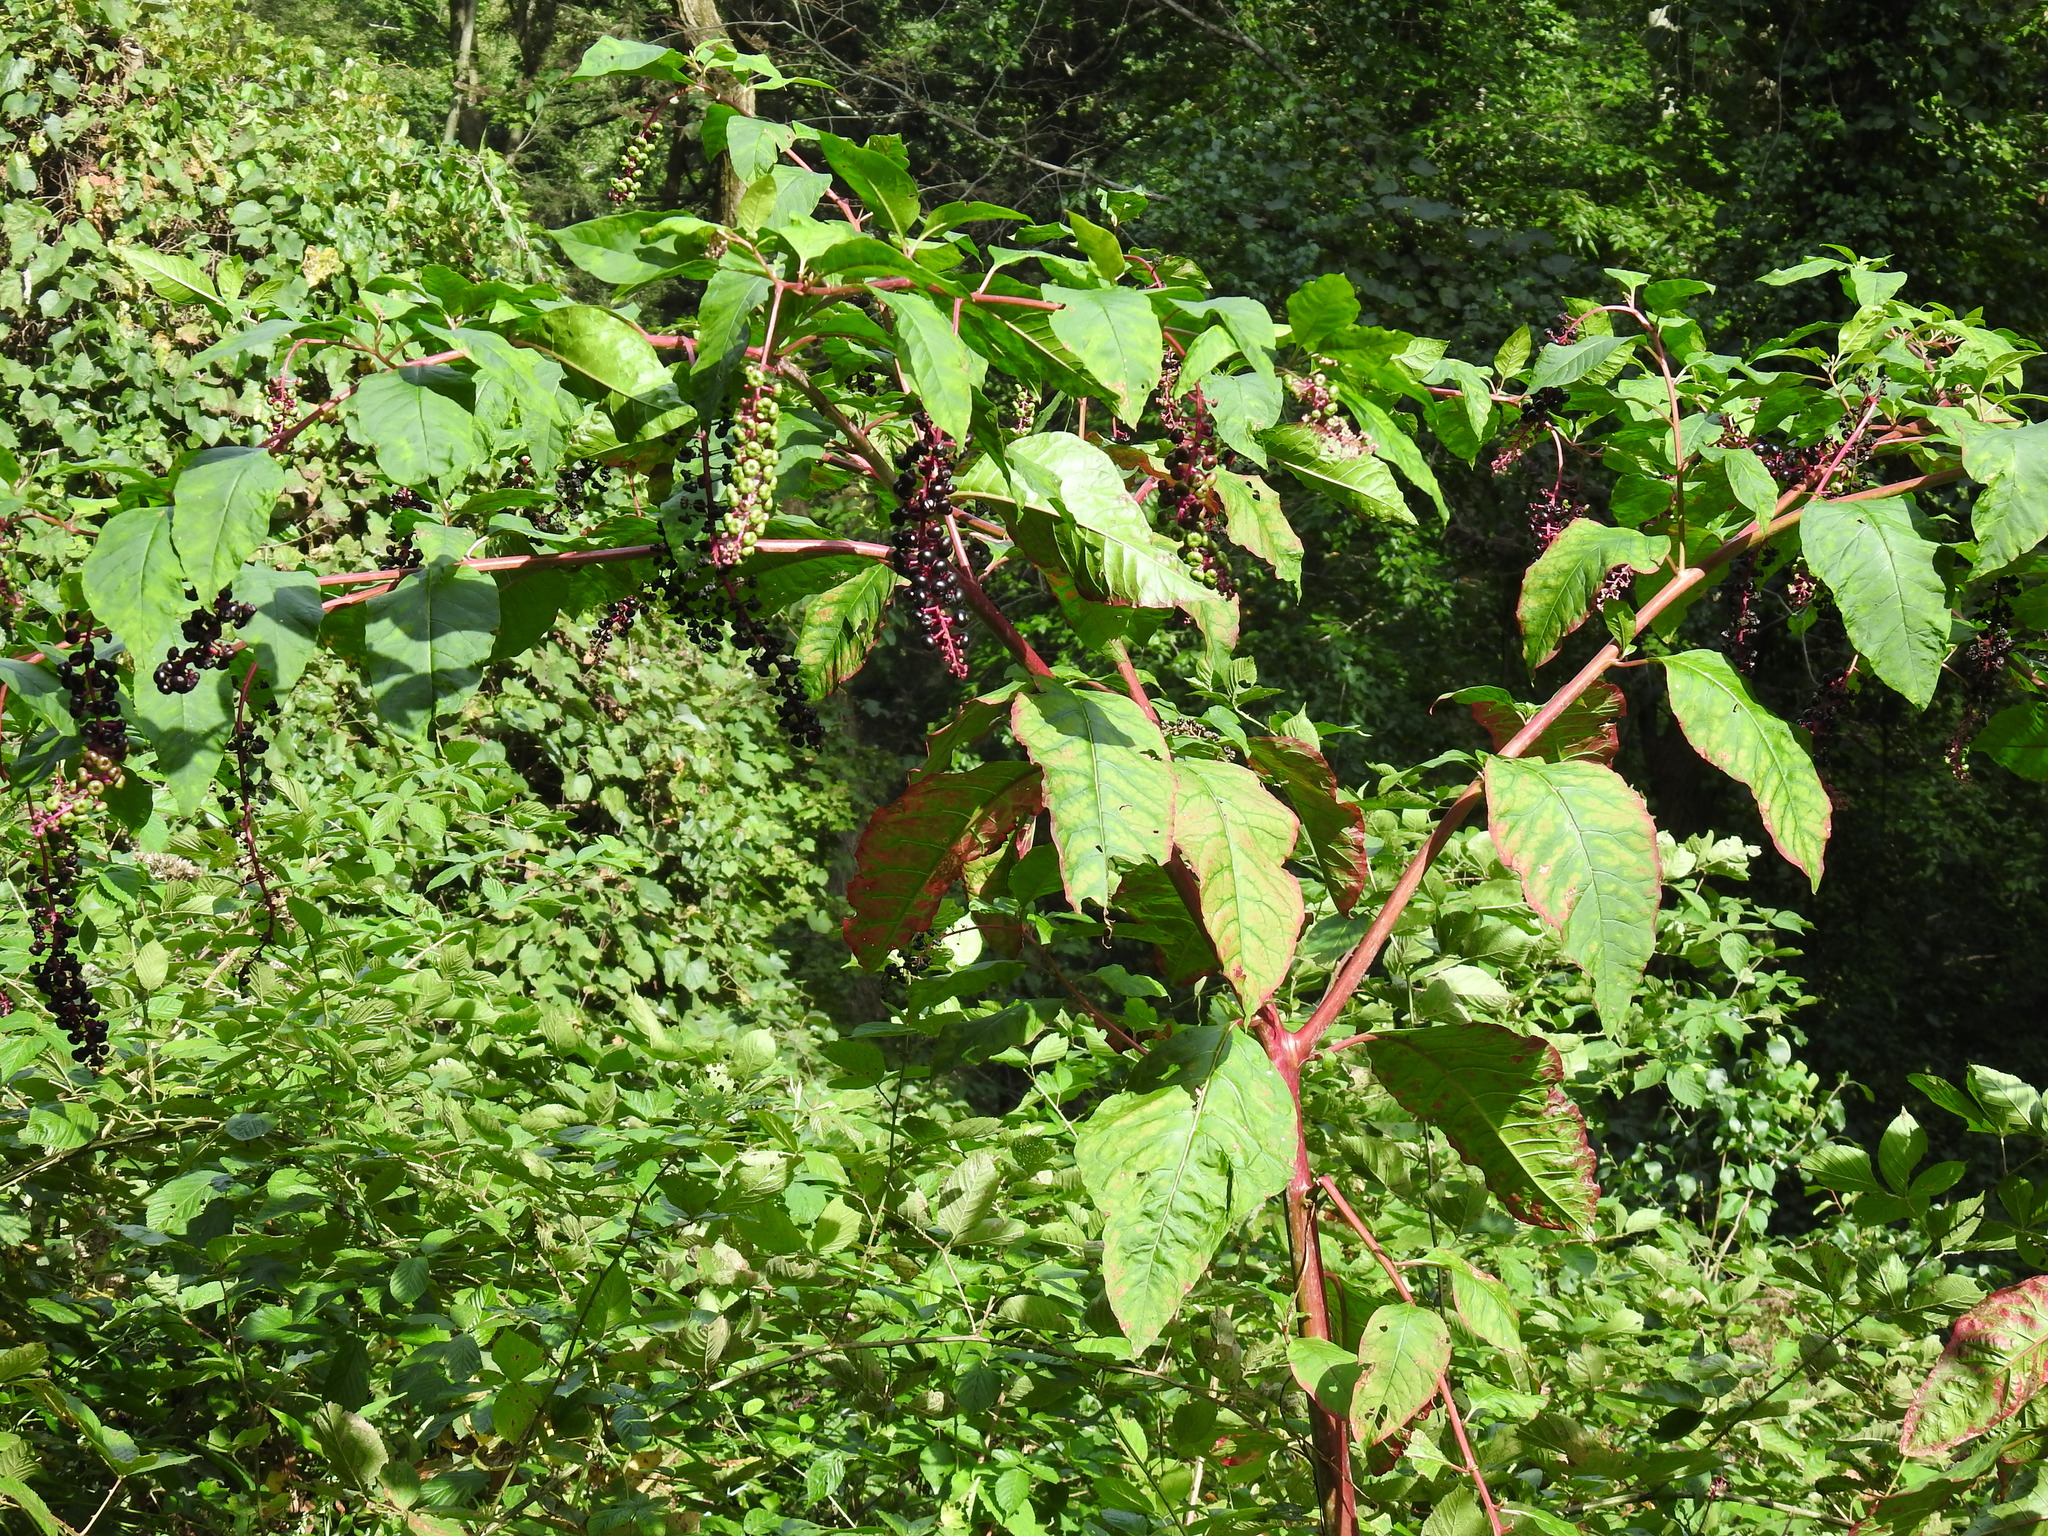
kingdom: Plantae
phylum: Tracheophyta
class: Magnoliopsida
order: Caryophyllales
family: Phytolaccaceae
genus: Phytolacca
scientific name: Phytolacca americana
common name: American pokeweed
